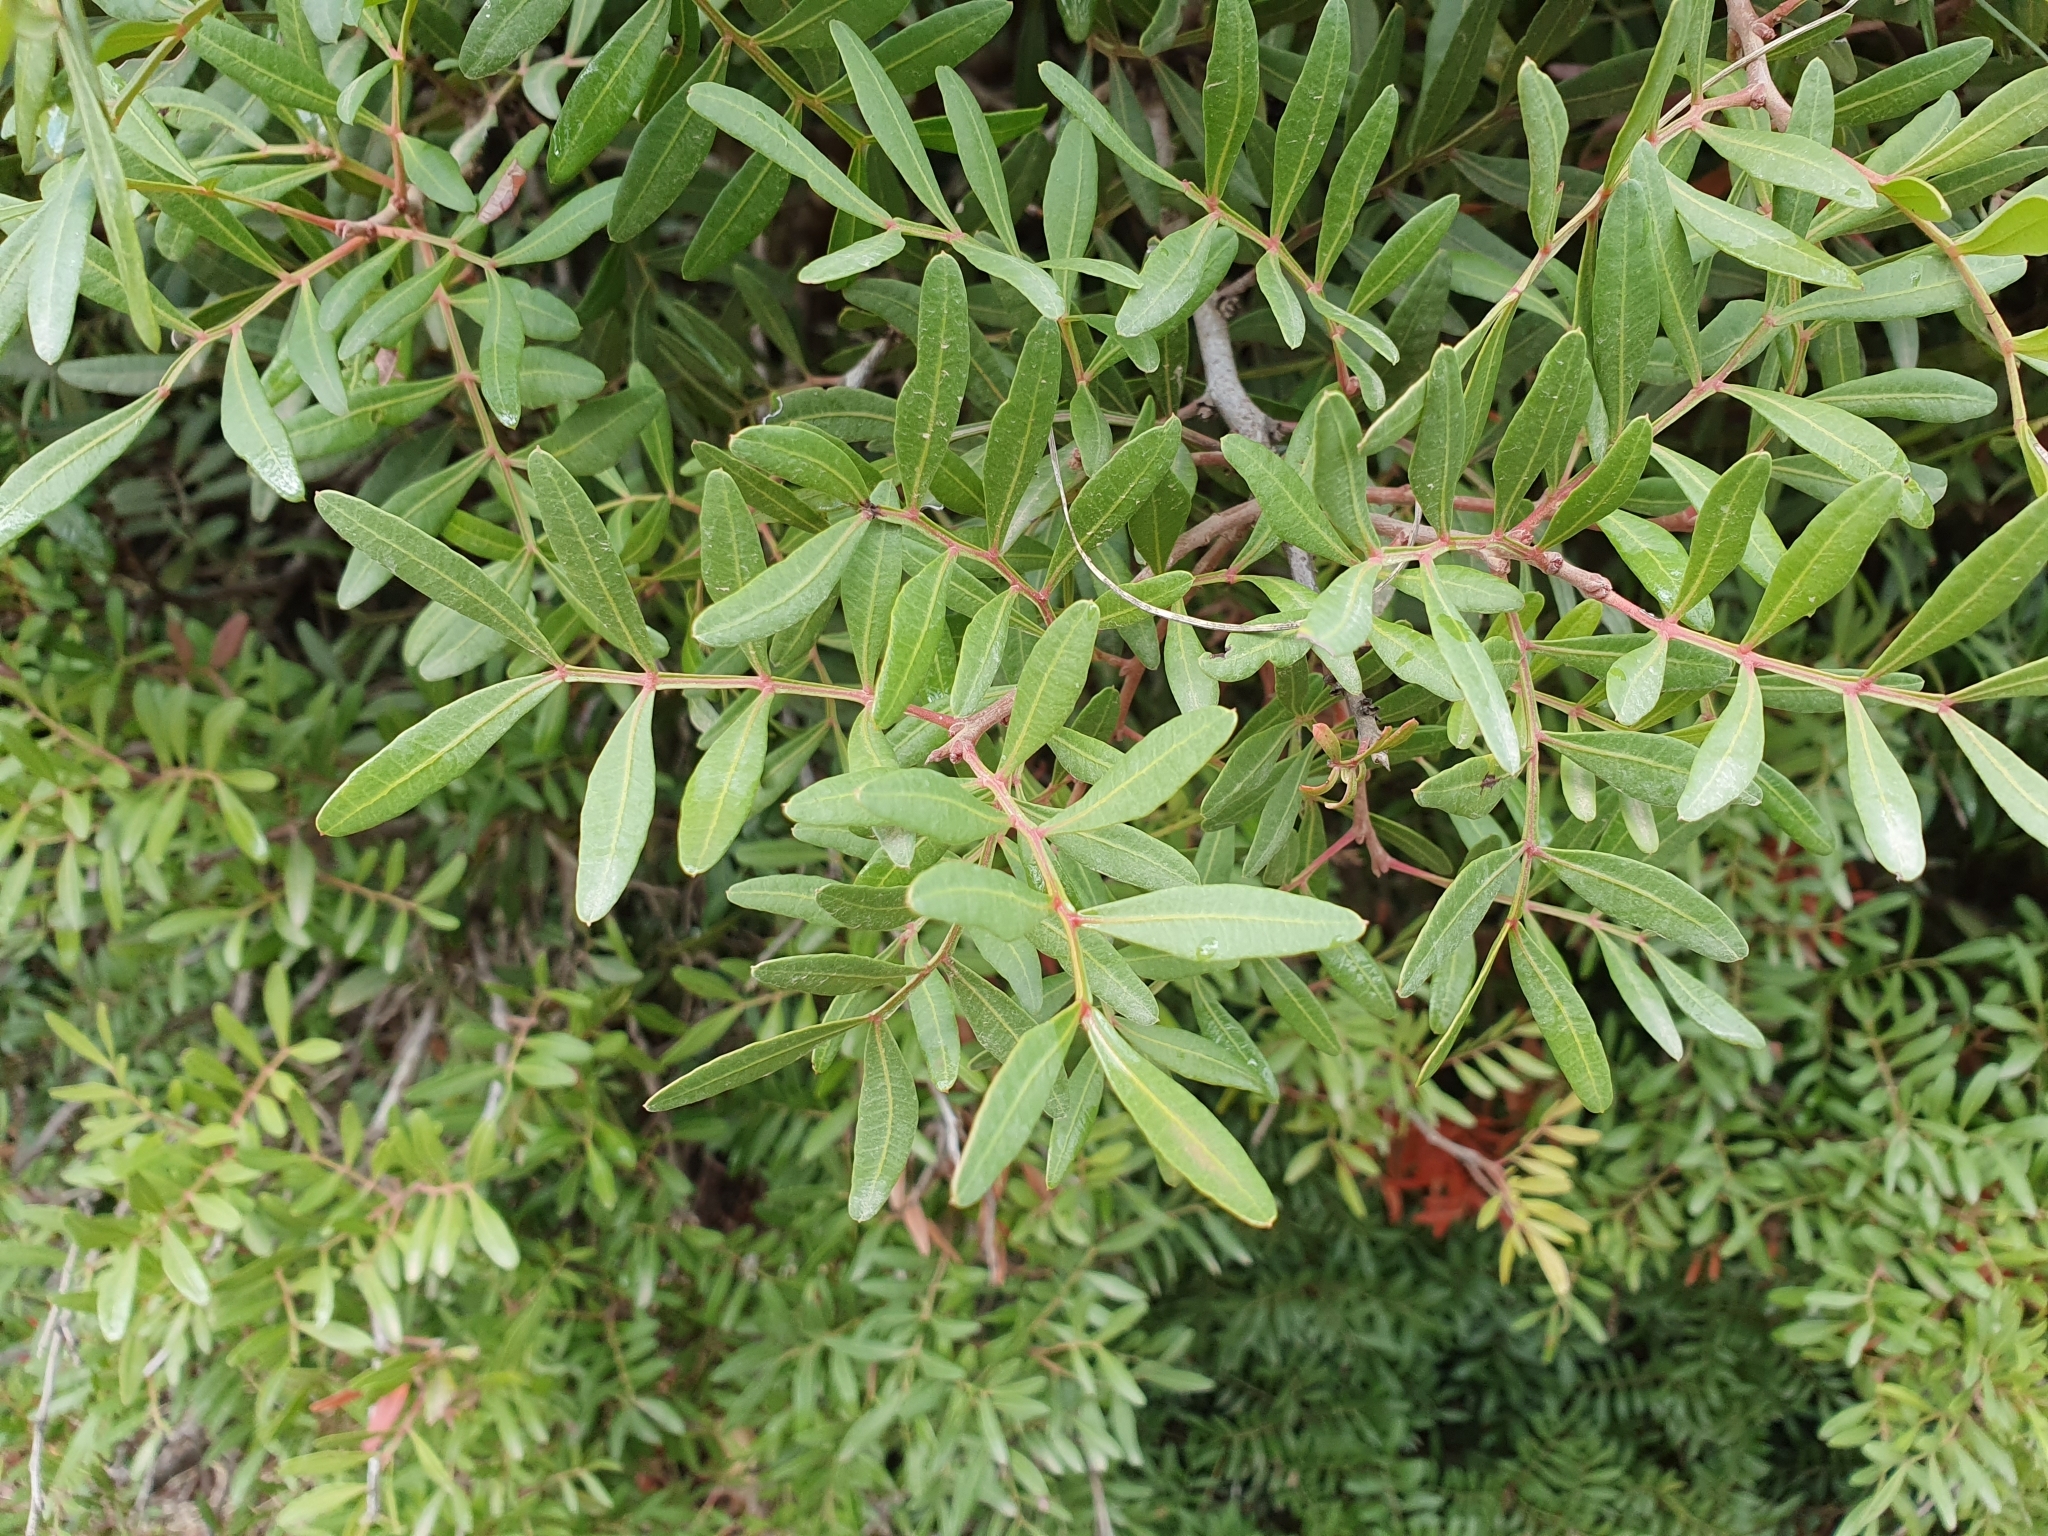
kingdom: Plantae
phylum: Tracheophyta
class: Magnoliopsida
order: Sapindales
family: Anacardiaceae
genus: Pistacia
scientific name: Pistacia lentiscus
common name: Lentisk
